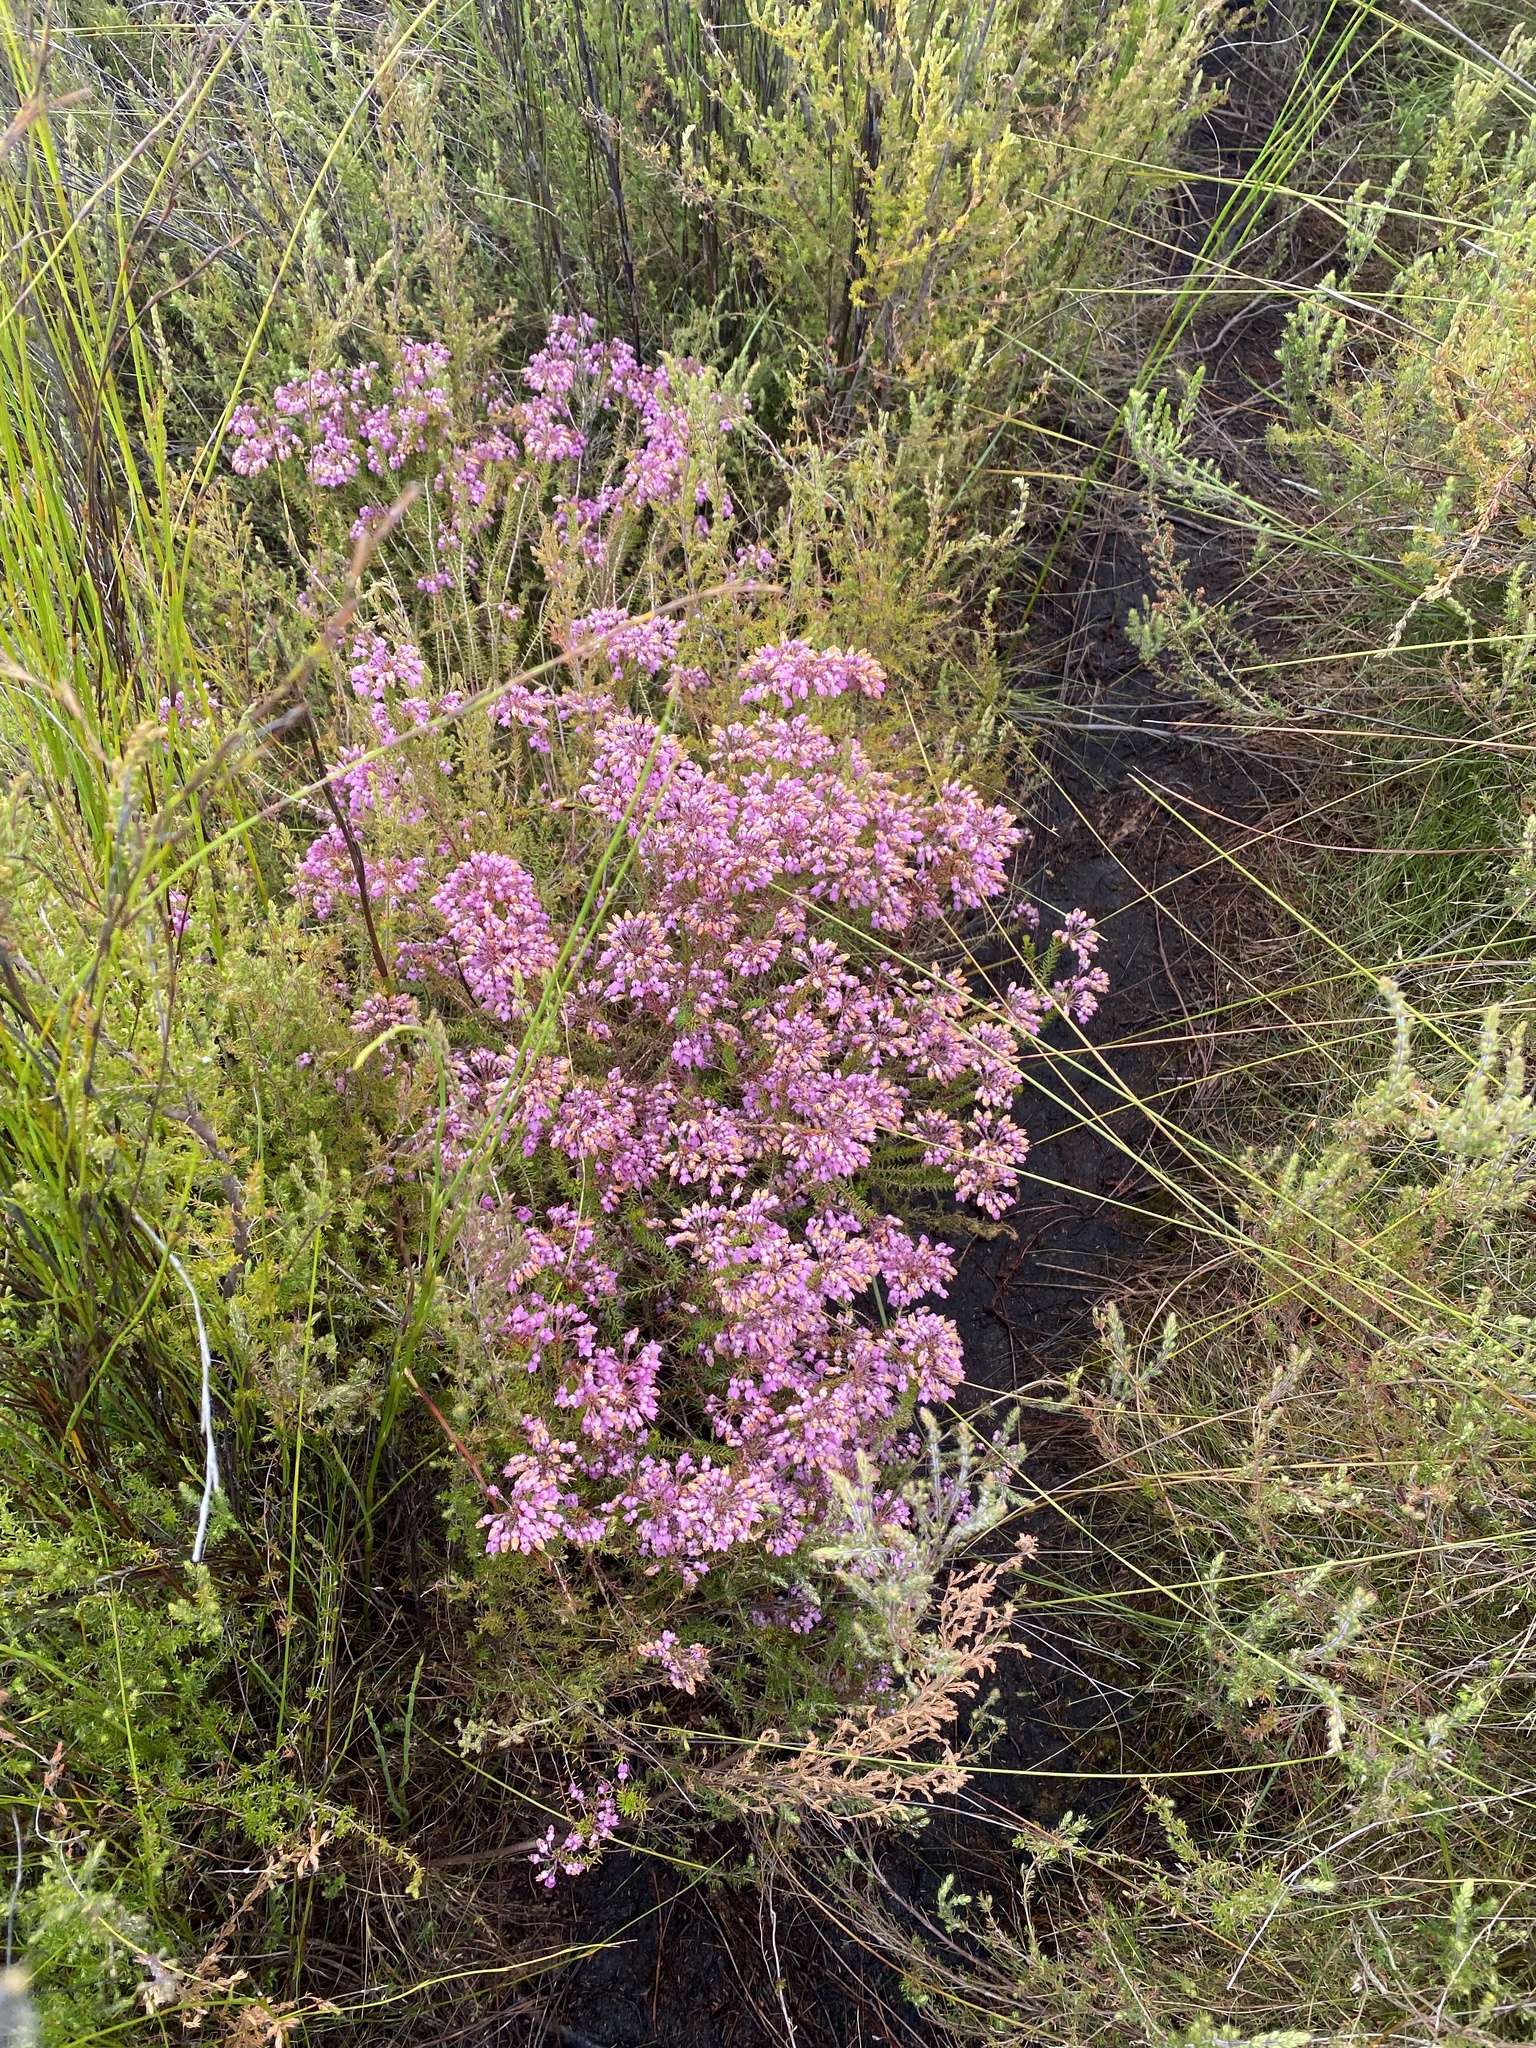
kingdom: Plantae
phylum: Tracheophyta
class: Magnoliopsida
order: Ericales
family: Ericaceae
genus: Erica
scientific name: Erica cubica
